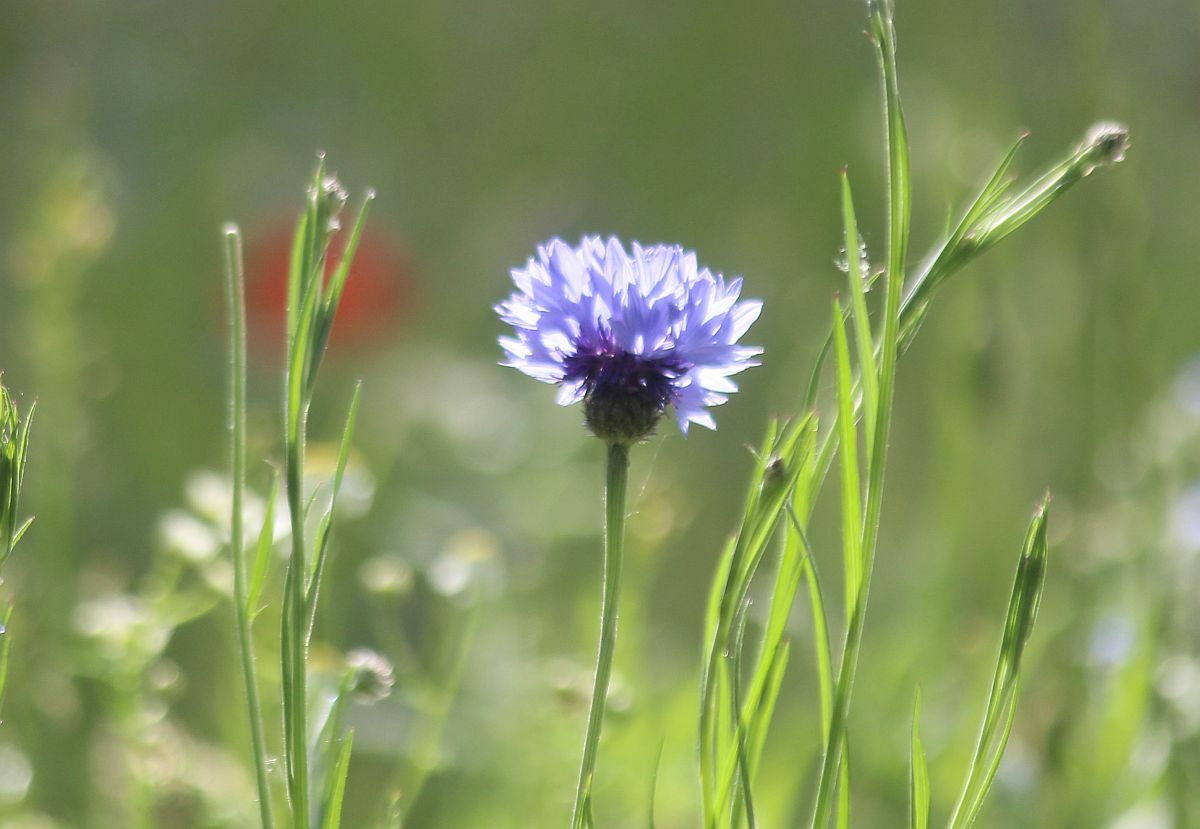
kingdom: Plantae
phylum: Tracheophyta
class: Magnoliopsida
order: Asterales
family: Asteraceae
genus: Centaurea
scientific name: Centaurea cyanus
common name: Cornflower
